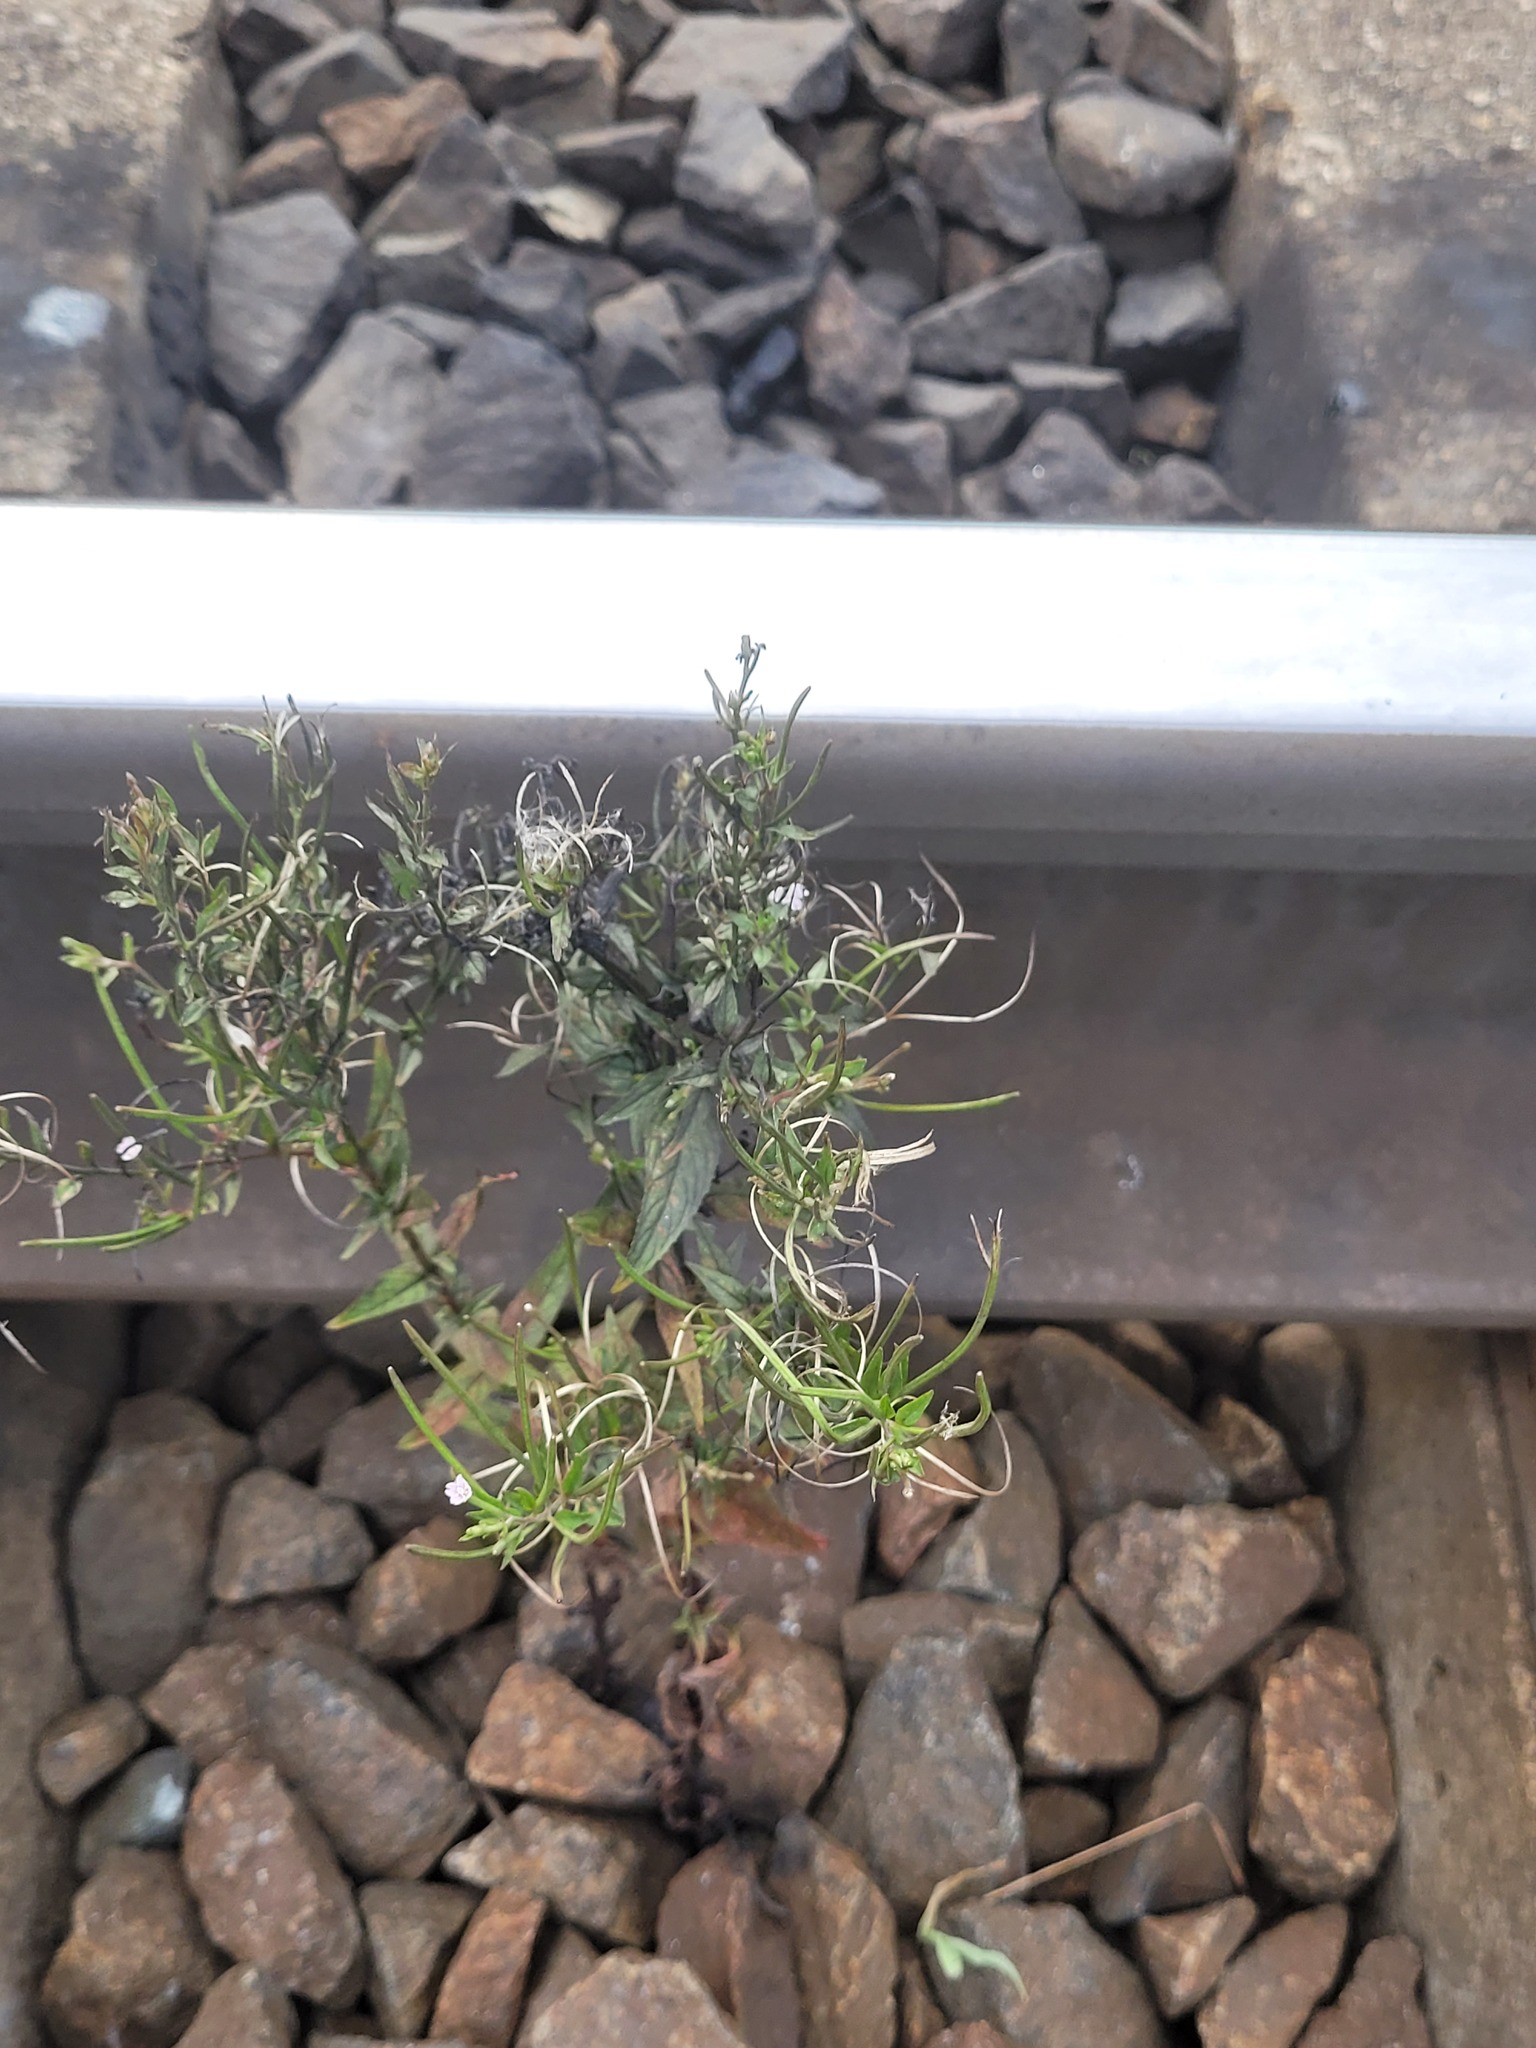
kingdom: Plantae
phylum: Tracheophyta
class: Magnoliopsida
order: Myrtales
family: Onagraceae
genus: Epilobium
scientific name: Epilobium pseudorubescens
